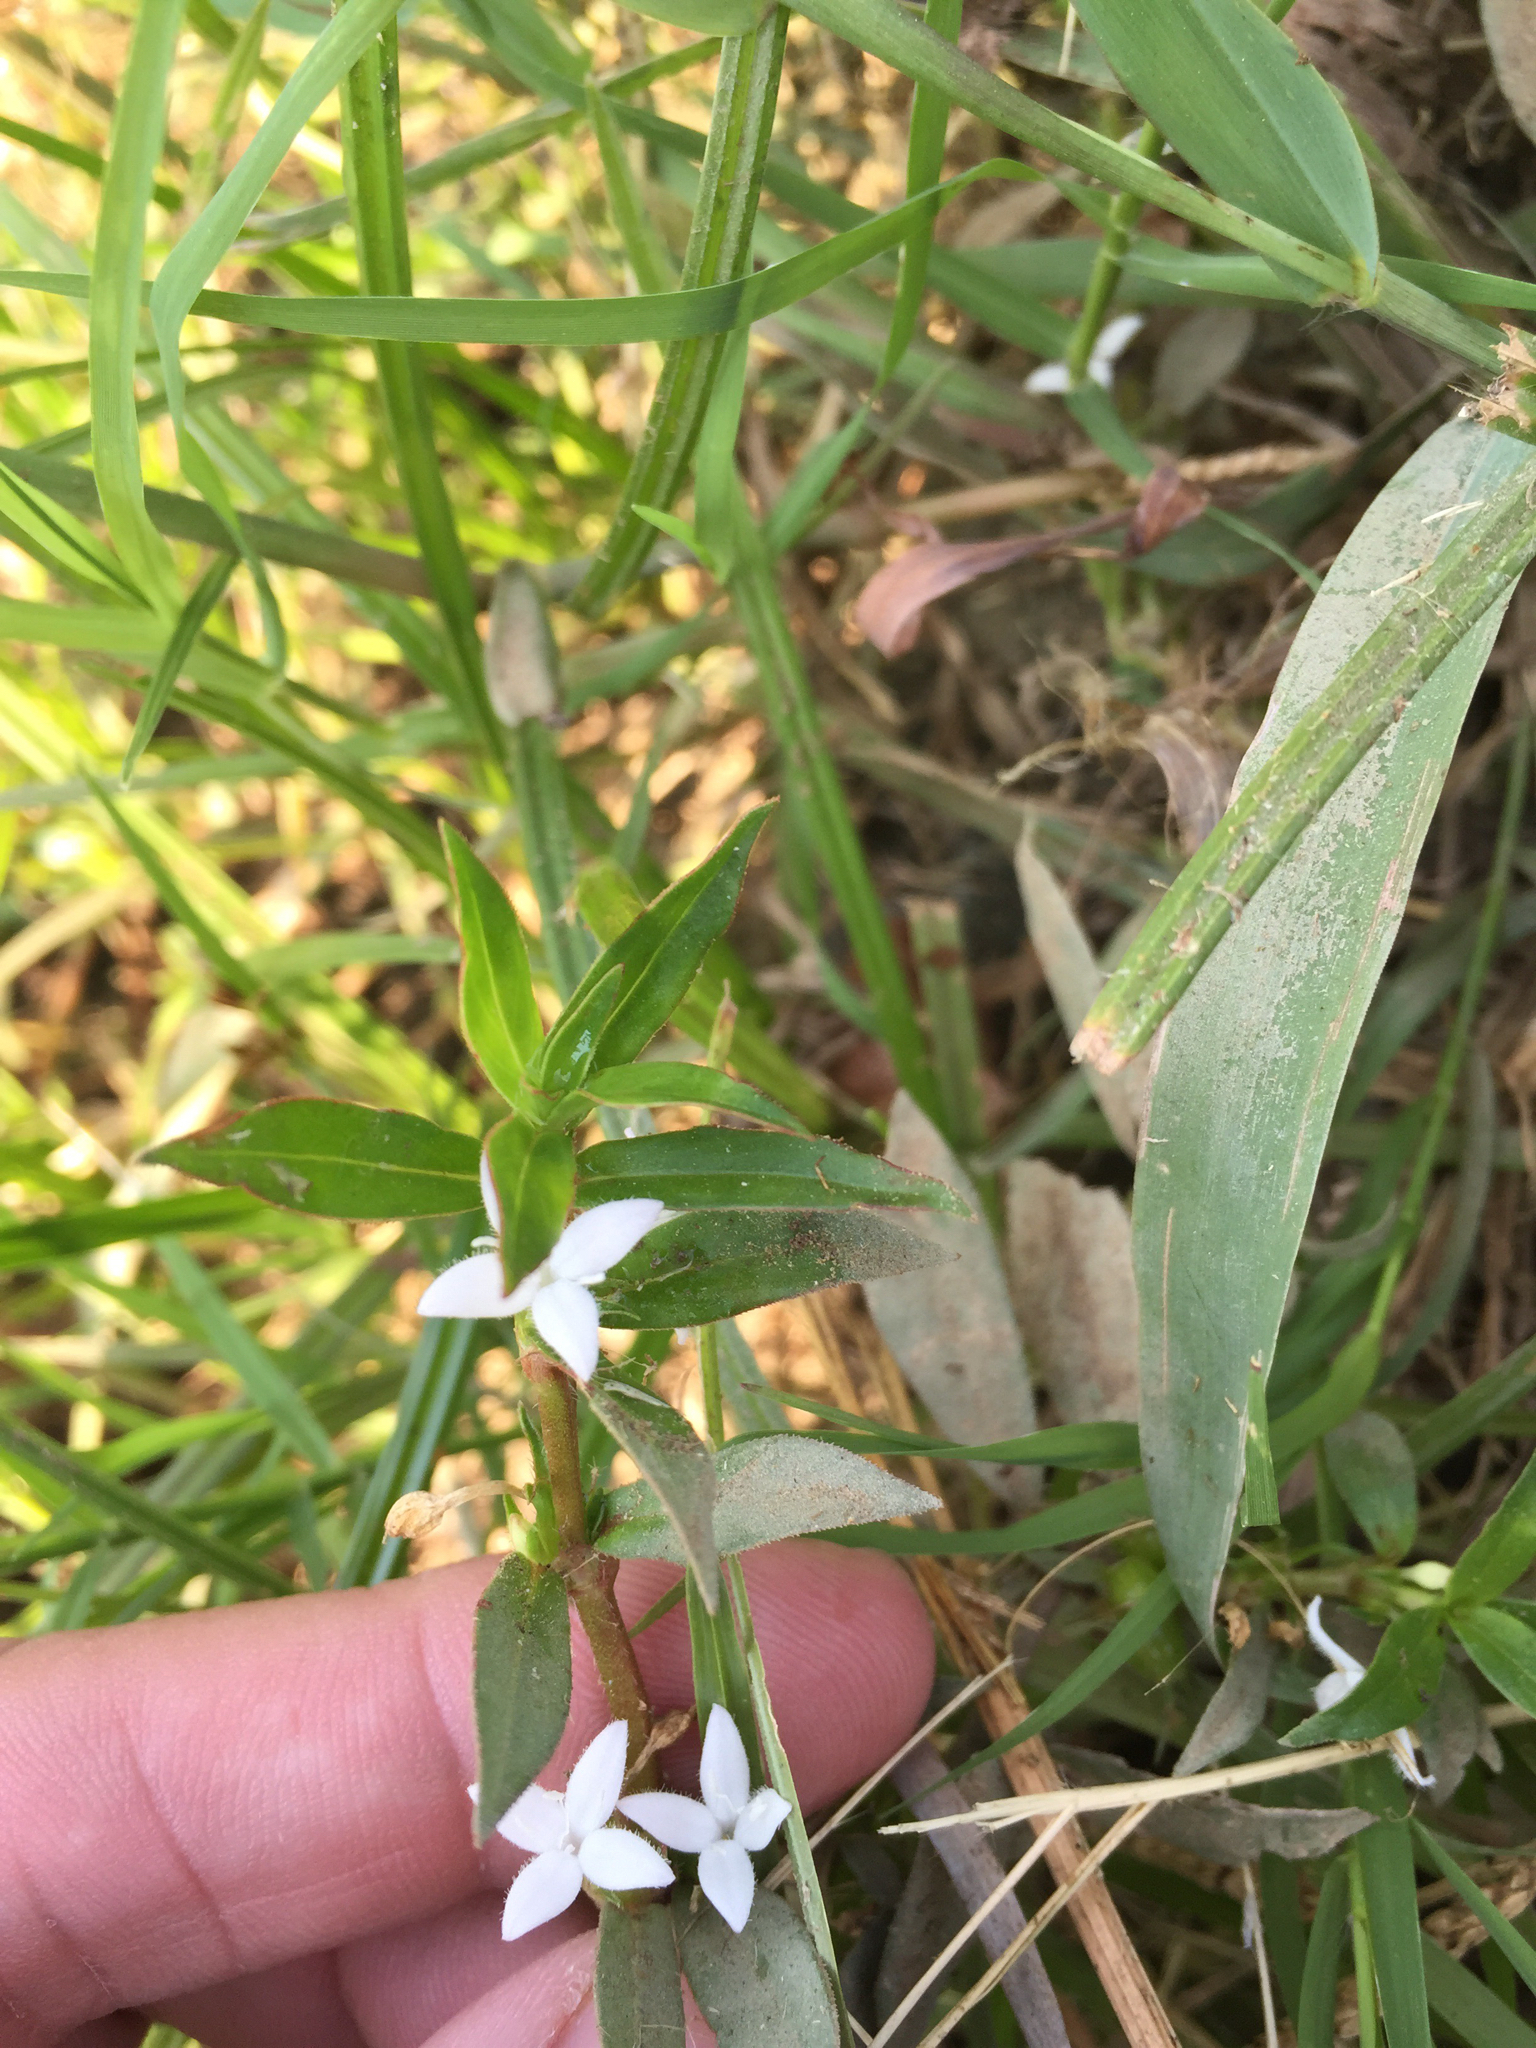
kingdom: Plantae
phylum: Tracheophyta
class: Magnoliopsida
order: Gentianales
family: Rubiaceae
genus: Diodia
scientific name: Diodia virginiana
